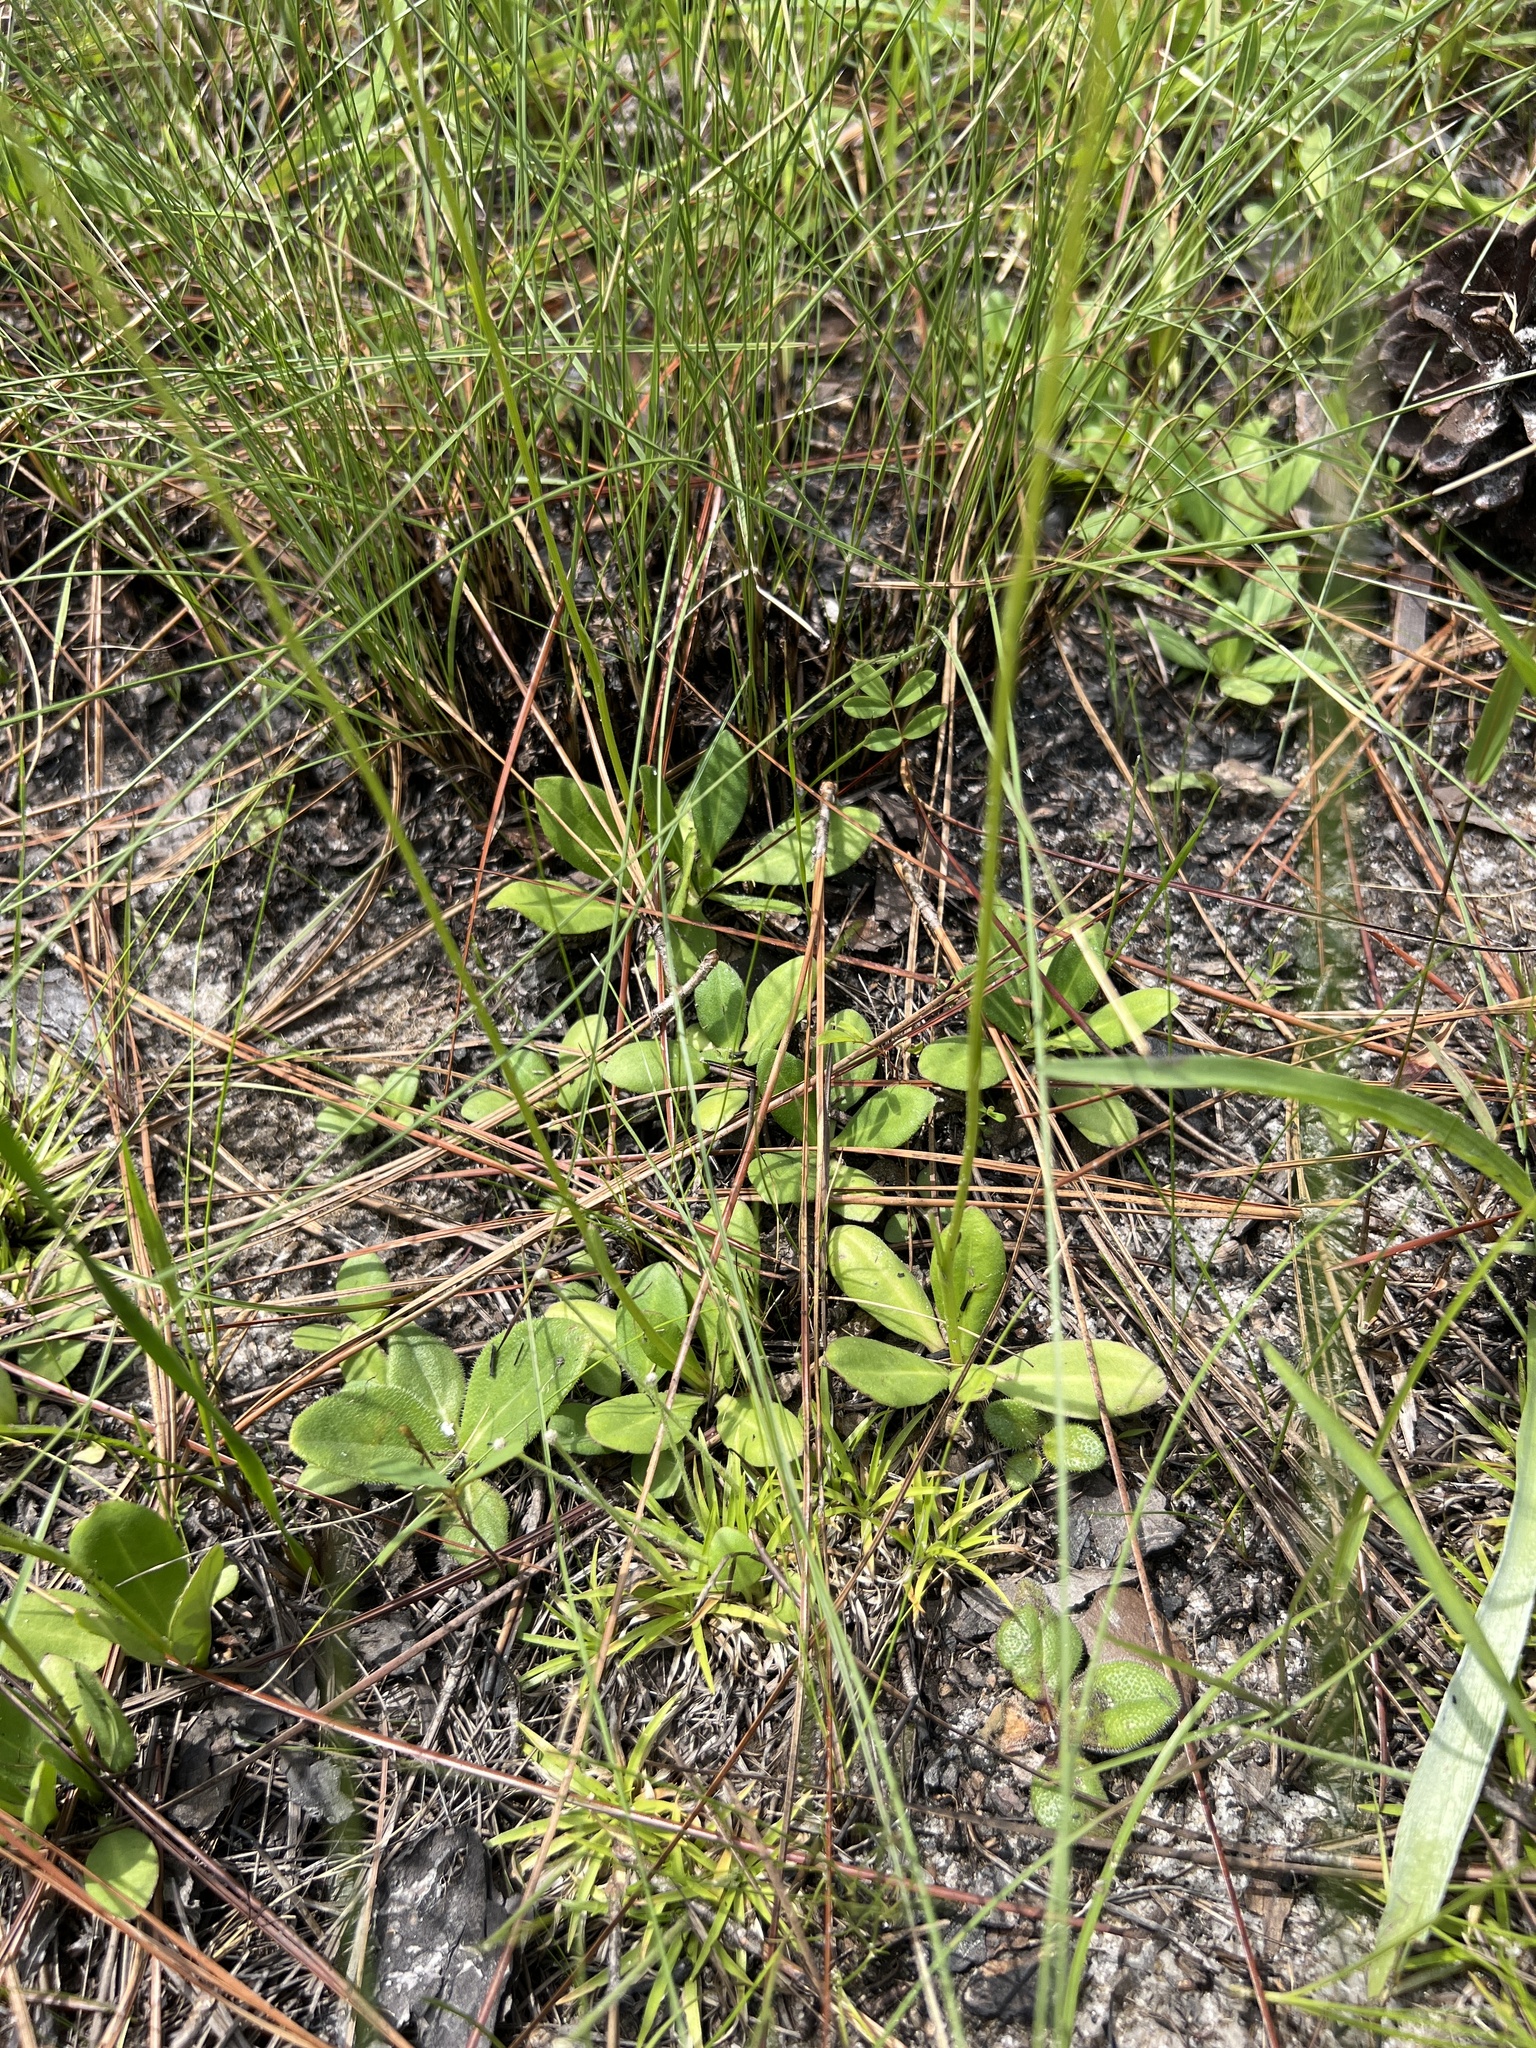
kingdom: Plantae
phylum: Tracheophyta
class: Magnoliopsida
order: Asterales
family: Asteraceae
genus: Erigeron
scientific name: Erigeron vernus
